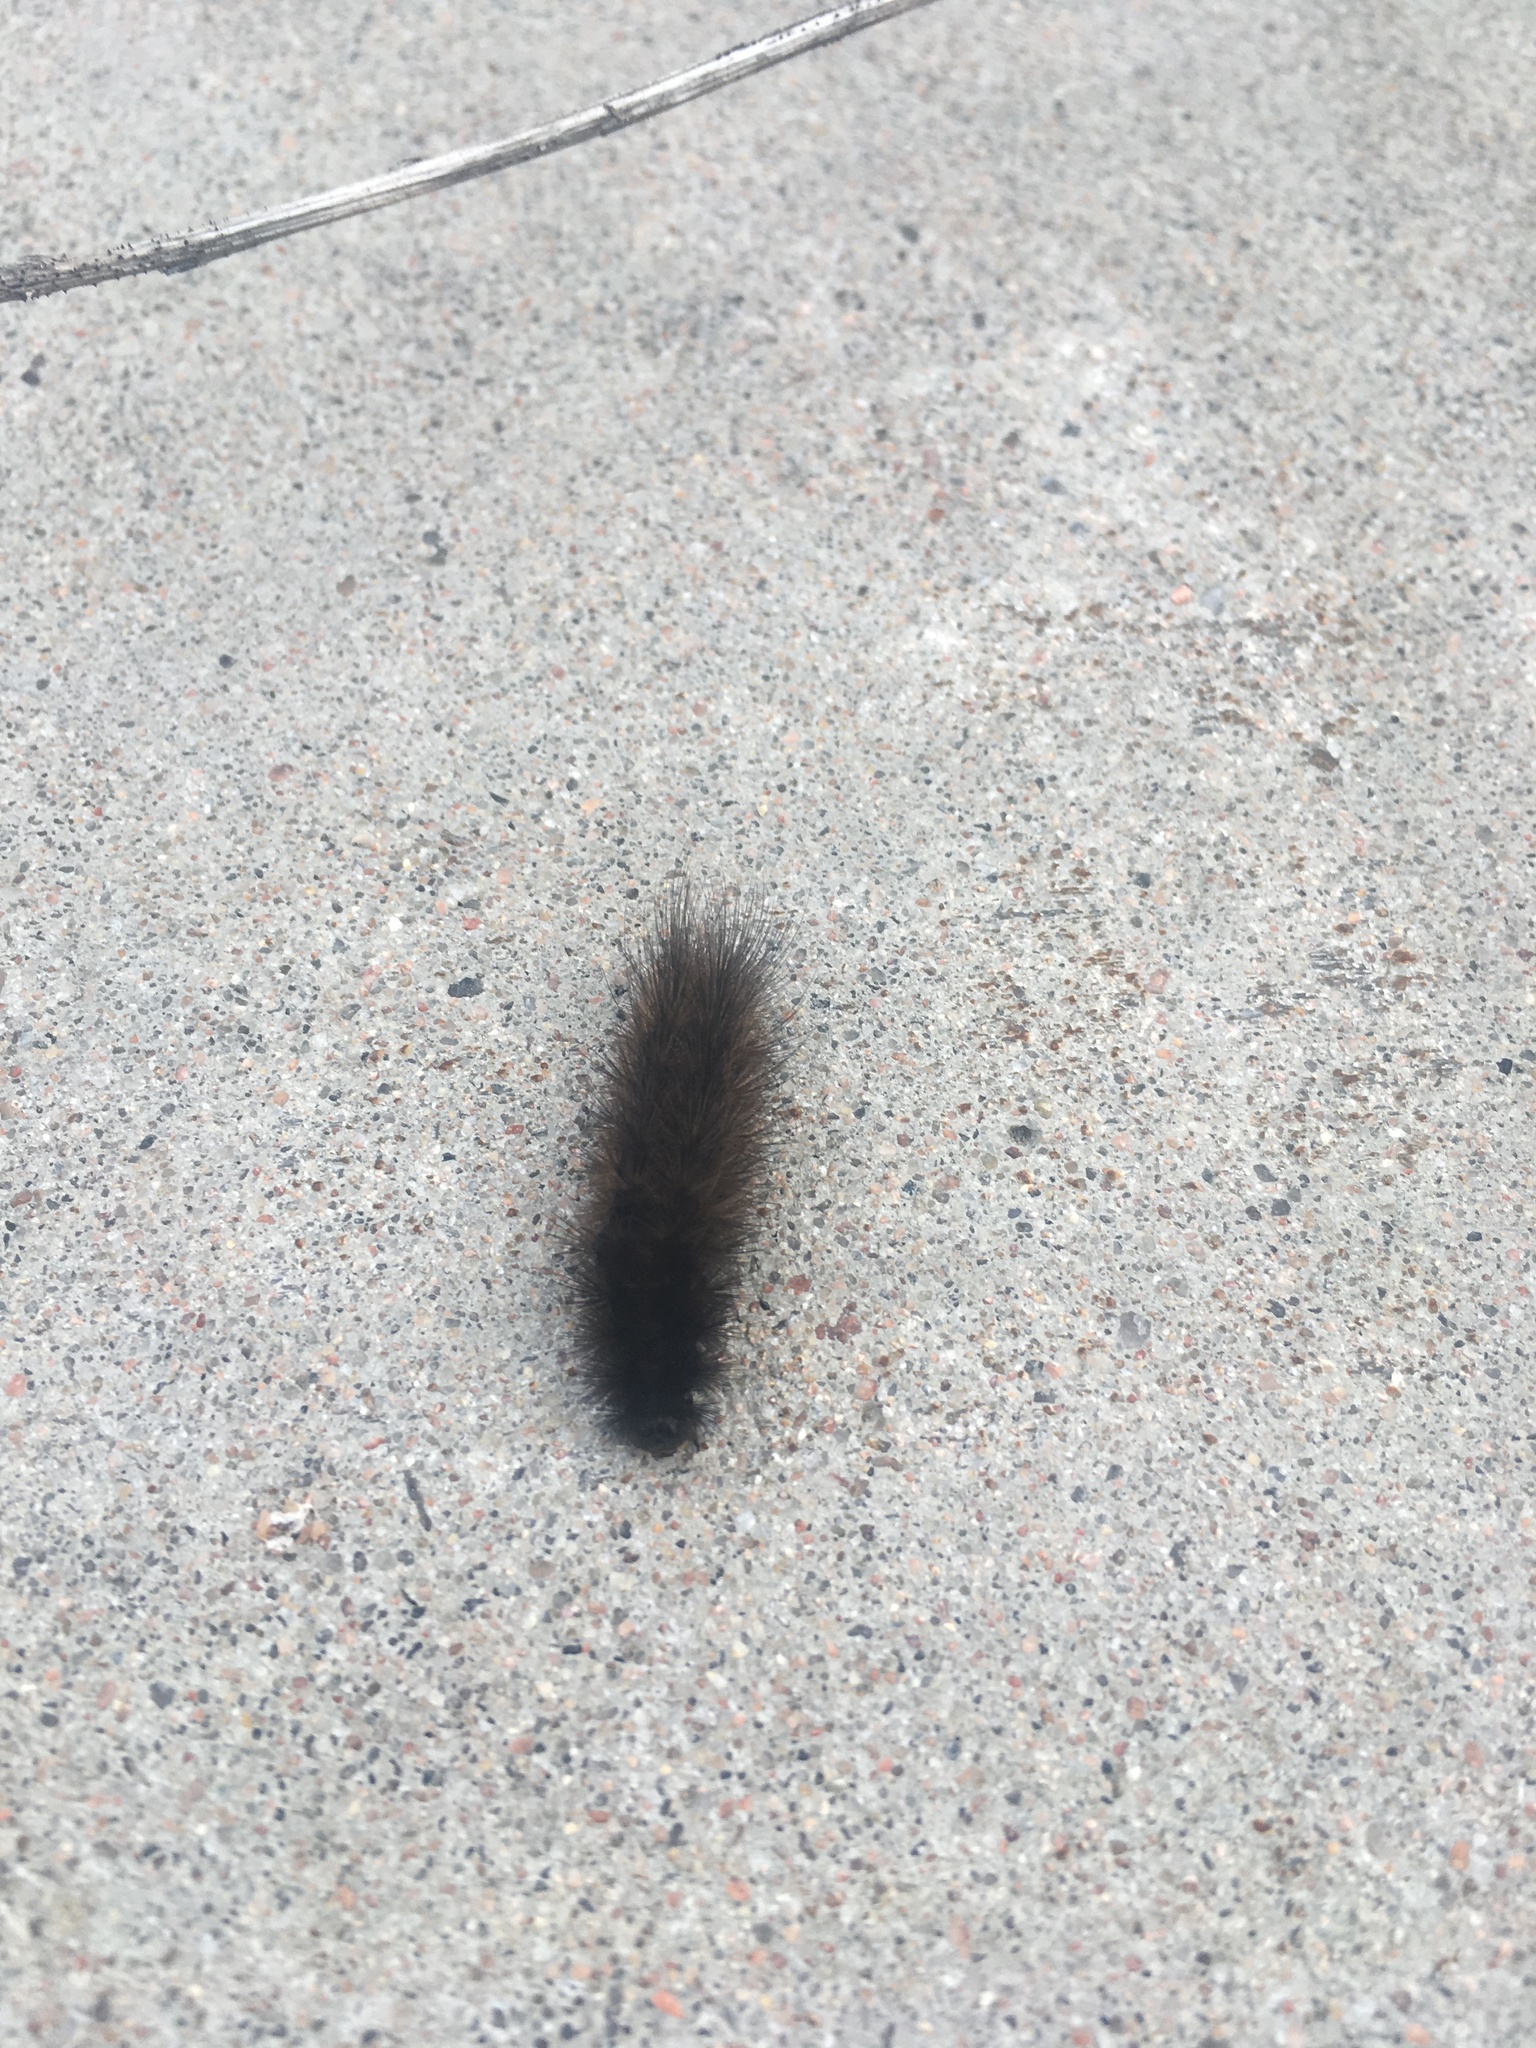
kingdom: Animalia
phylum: Arthropoda
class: Insecta
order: Lepidoptera
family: Erebidae
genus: Phragmatobia
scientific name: Phragmatobia fuliginosa
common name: Ruby tiger
